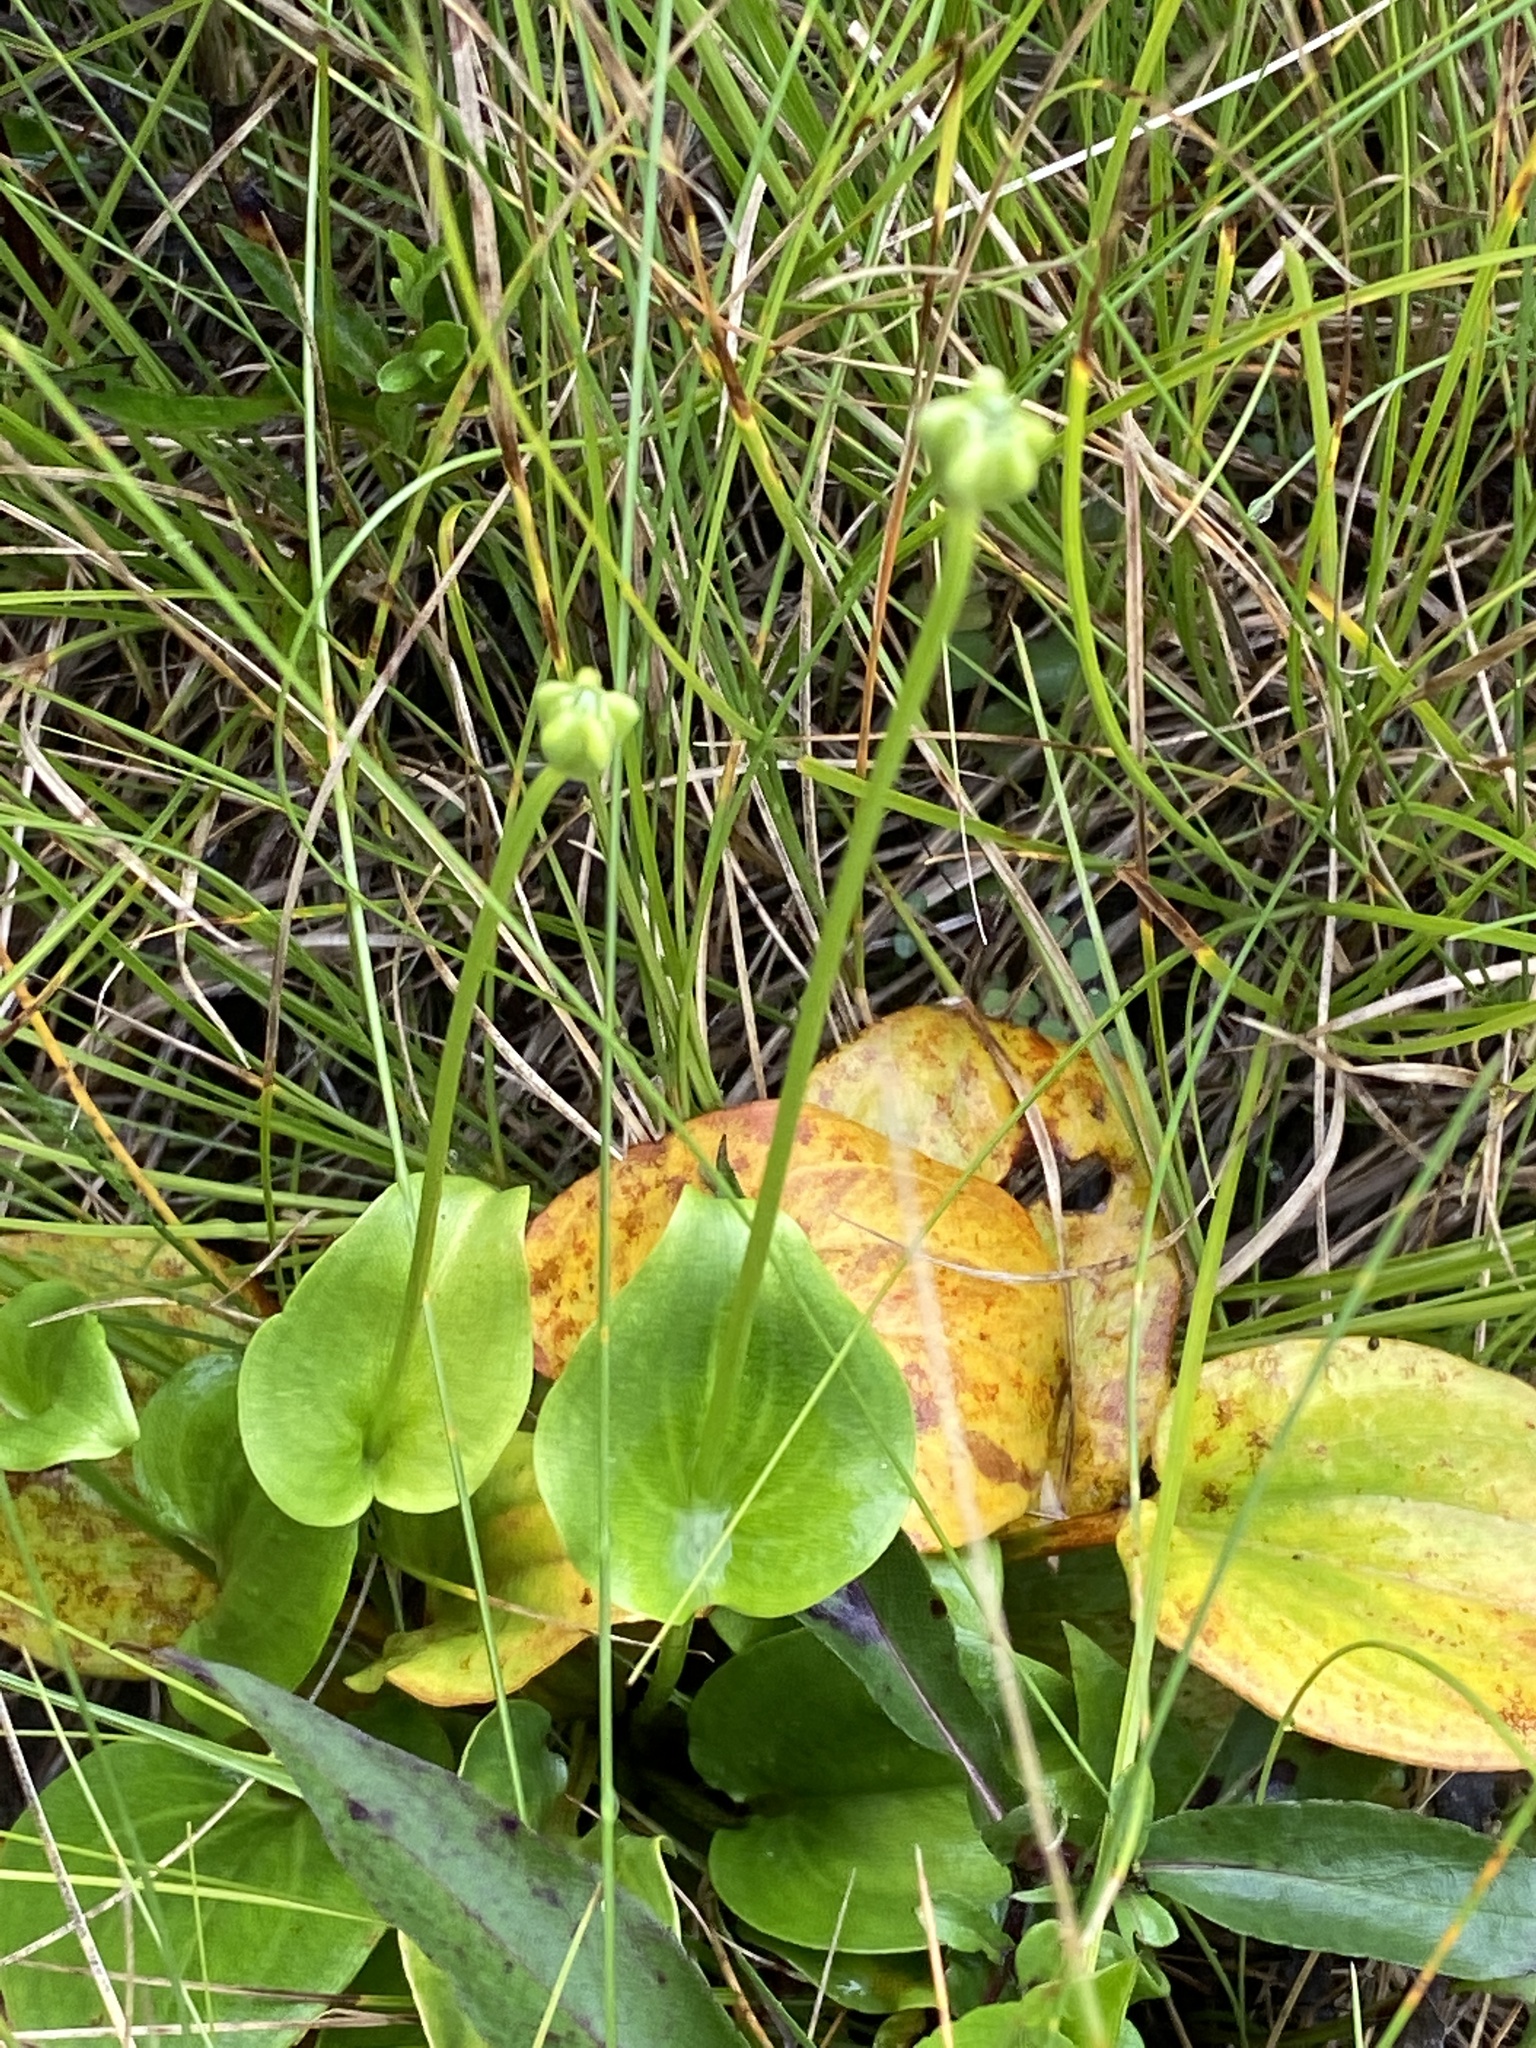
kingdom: Plantae
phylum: Tracheophyta
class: Magnoliopsida
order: Celastrales
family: Parnassiaceae
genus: Parnassia
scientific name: Parnassia grandifolia
